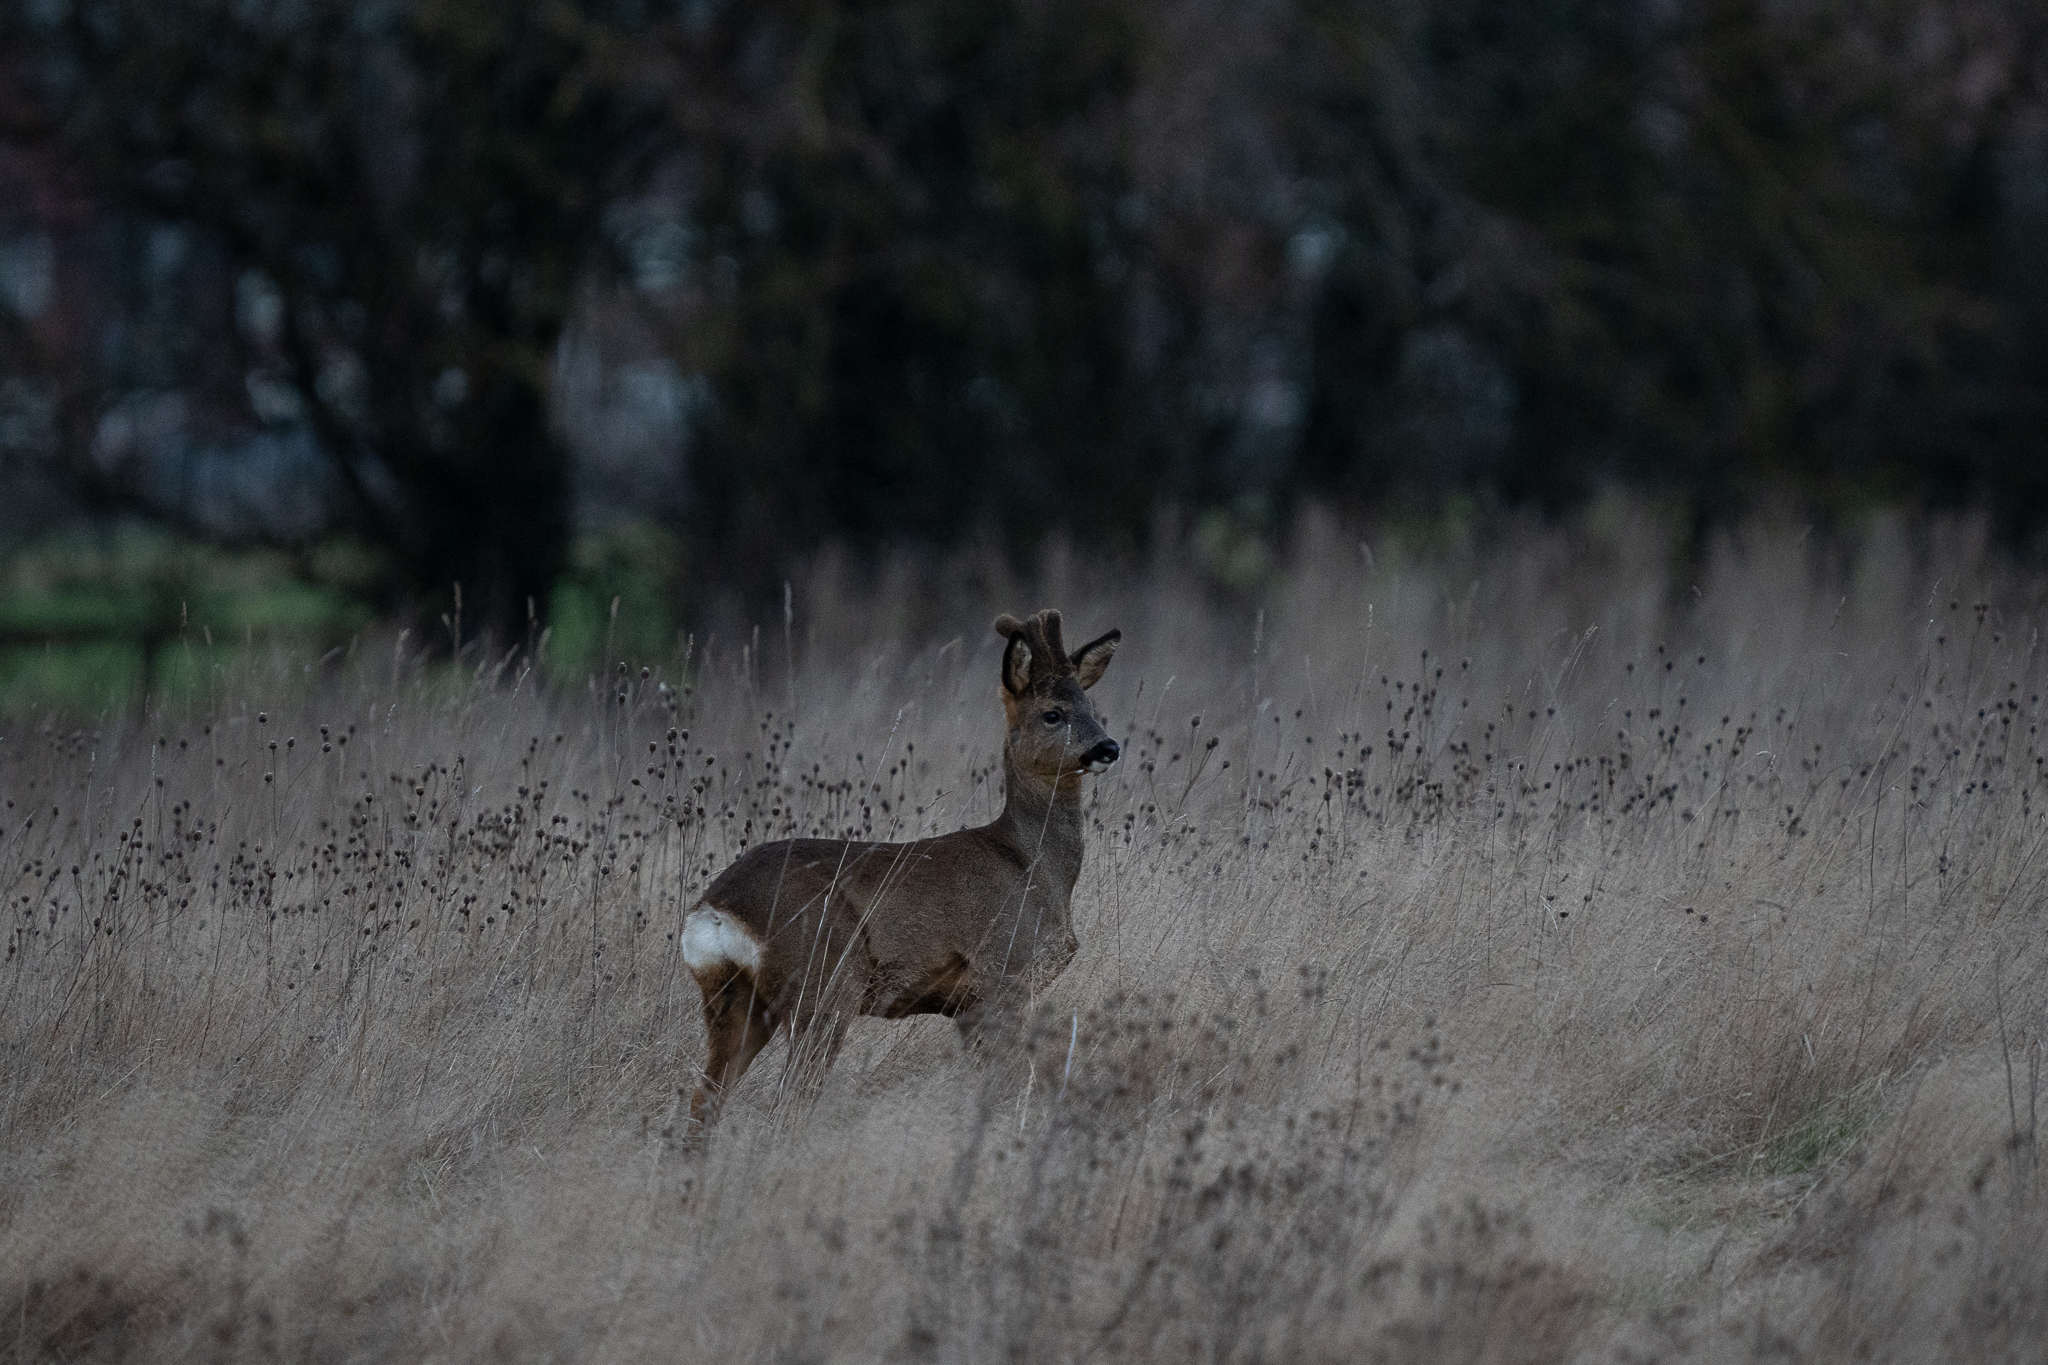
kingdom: Animalia
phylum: Chordata
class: Mammalia
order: Artiodactyla
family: Cervidae
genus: Capreolus
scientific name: Capreolus capreolus
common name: Western roe deer
